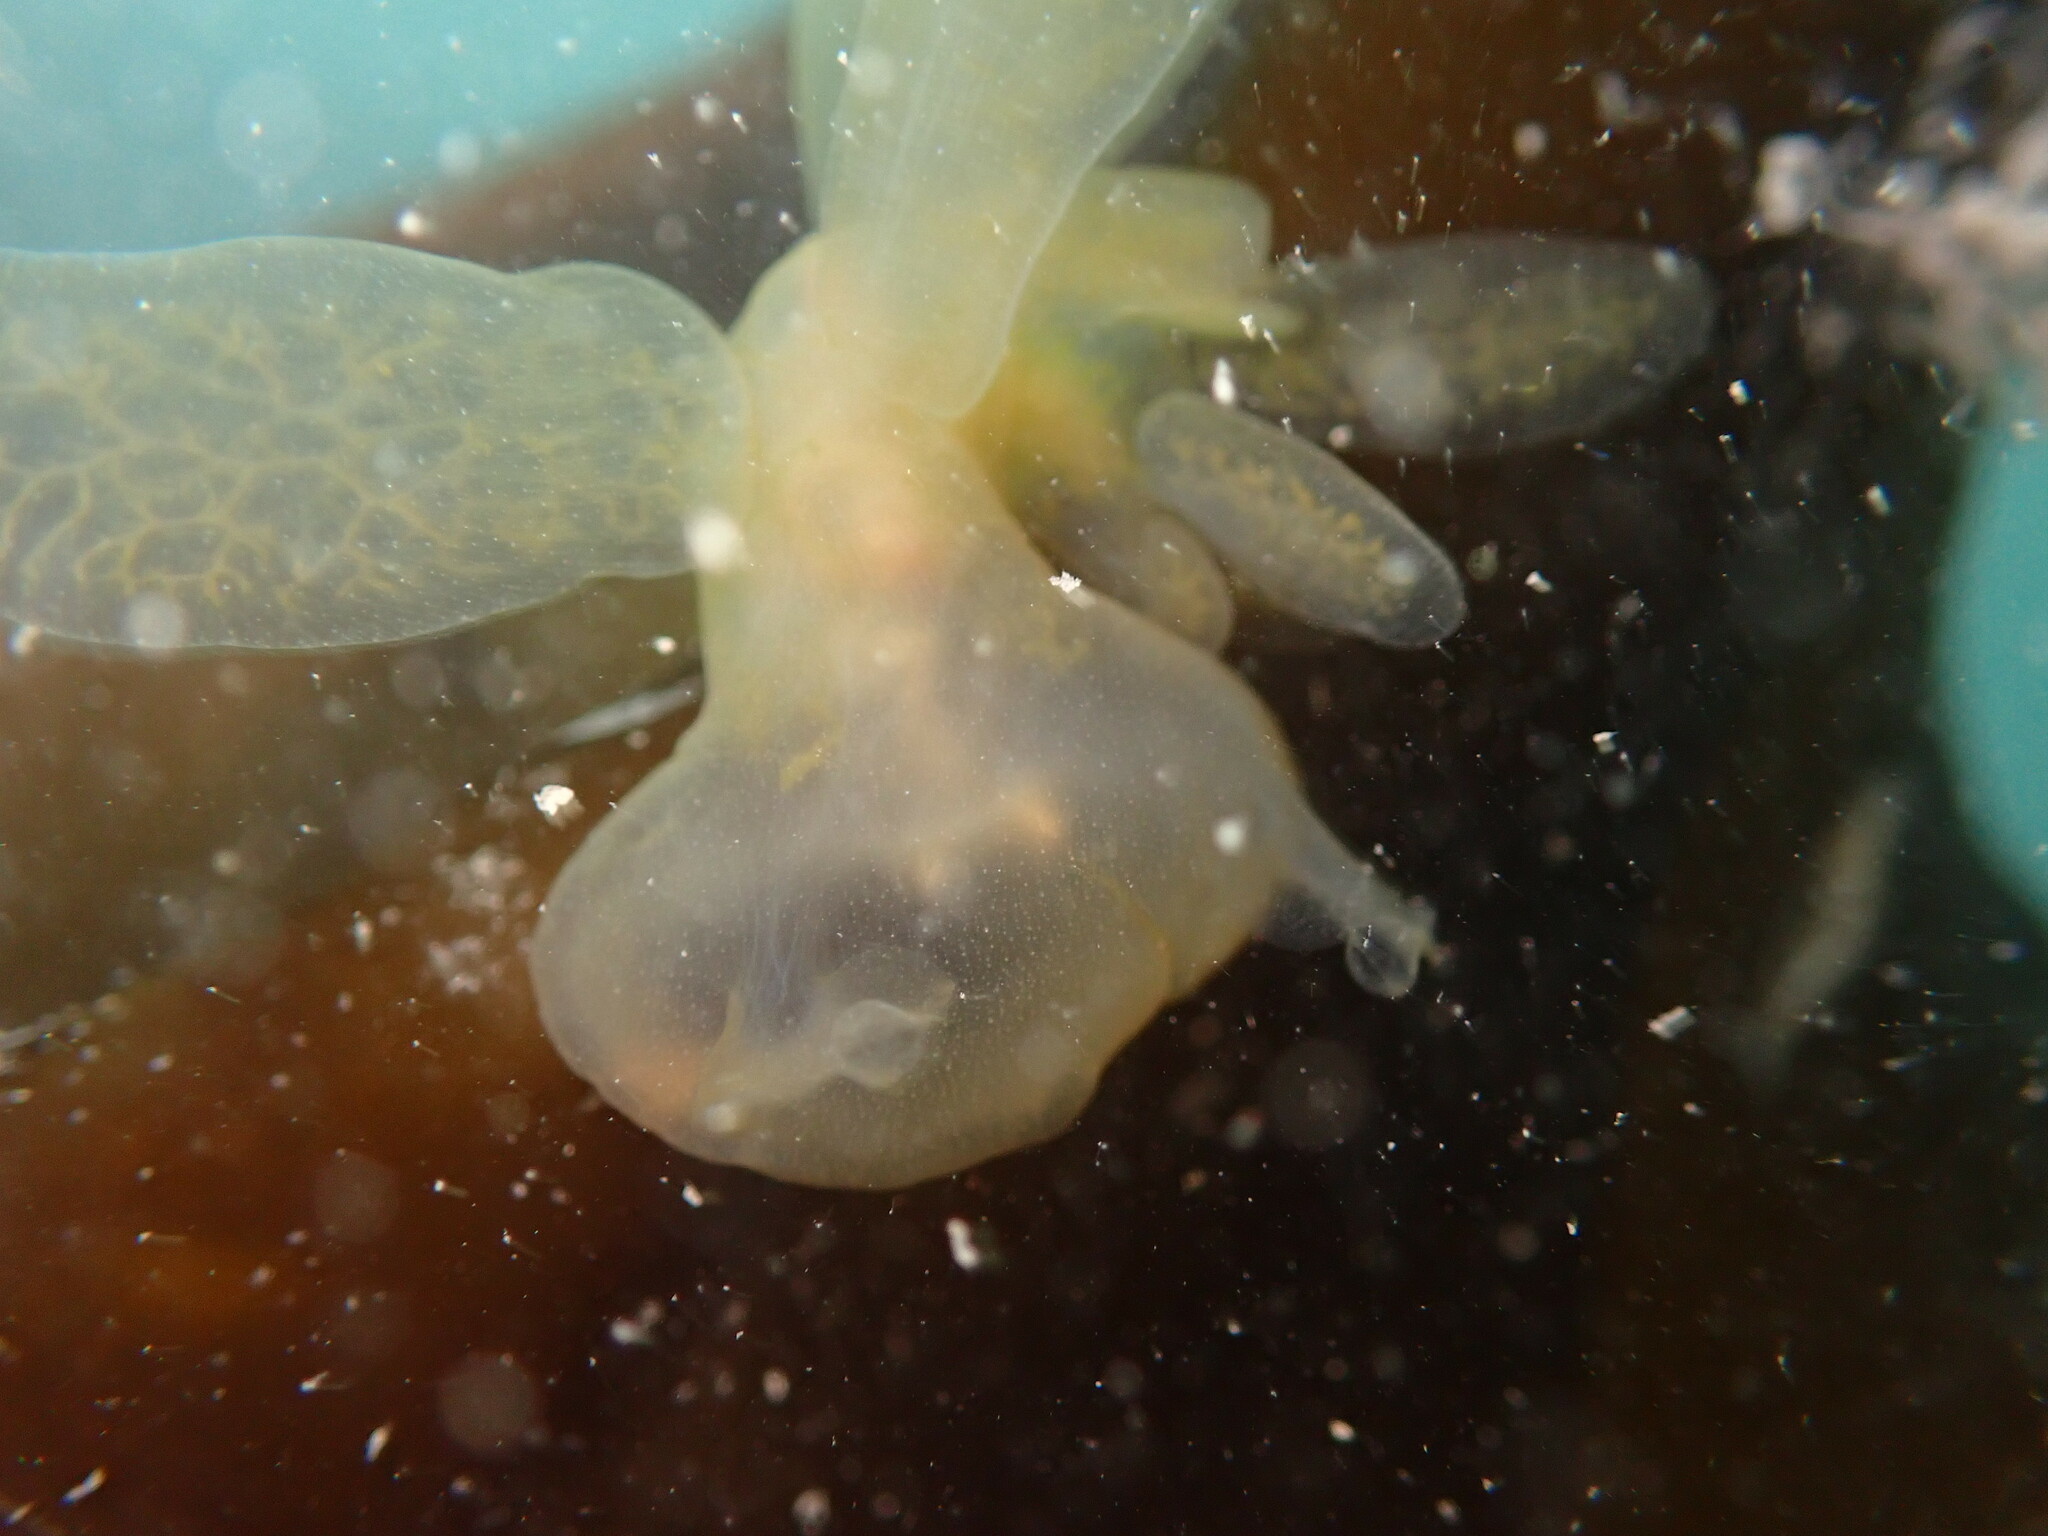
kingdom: Animalia
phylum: Mollusca
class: Gastropoda
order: Nudibranchia
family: Tethydidae
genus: Melibe
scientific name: Melibe leonina
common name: Lion nudibranch
